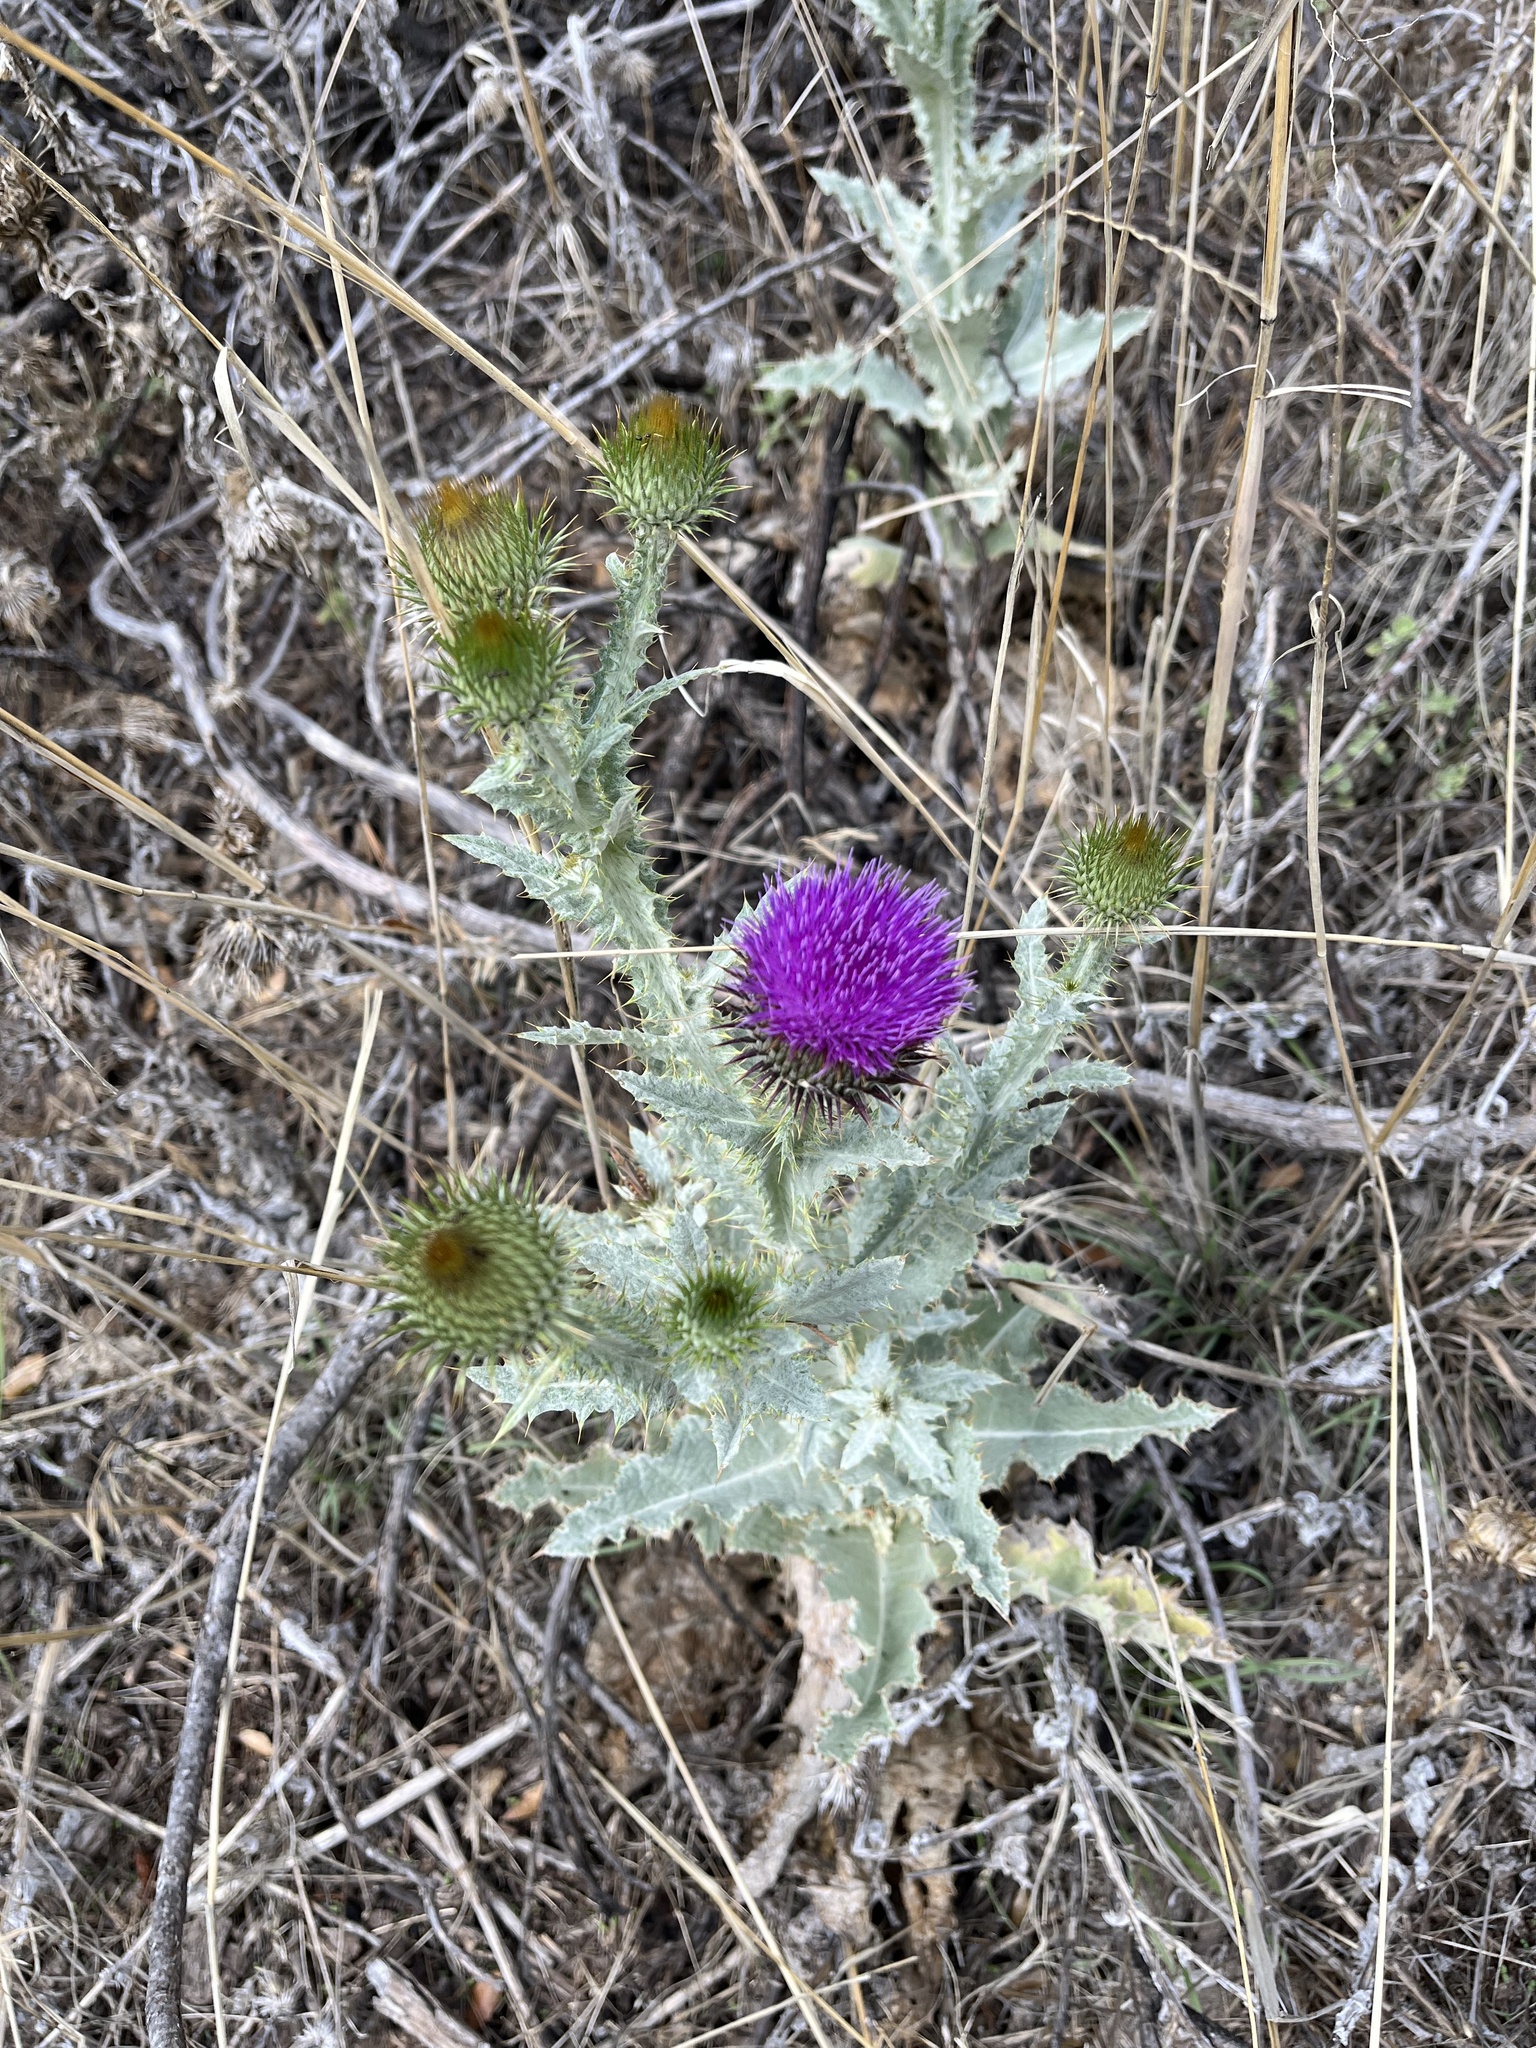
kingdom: Plantae
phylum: Tracheophyta
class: Magnoliopsida
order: Asterales
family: Asteraceae
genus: Onopordum
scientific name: Onopordum acanthium
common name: Scotch thistle
